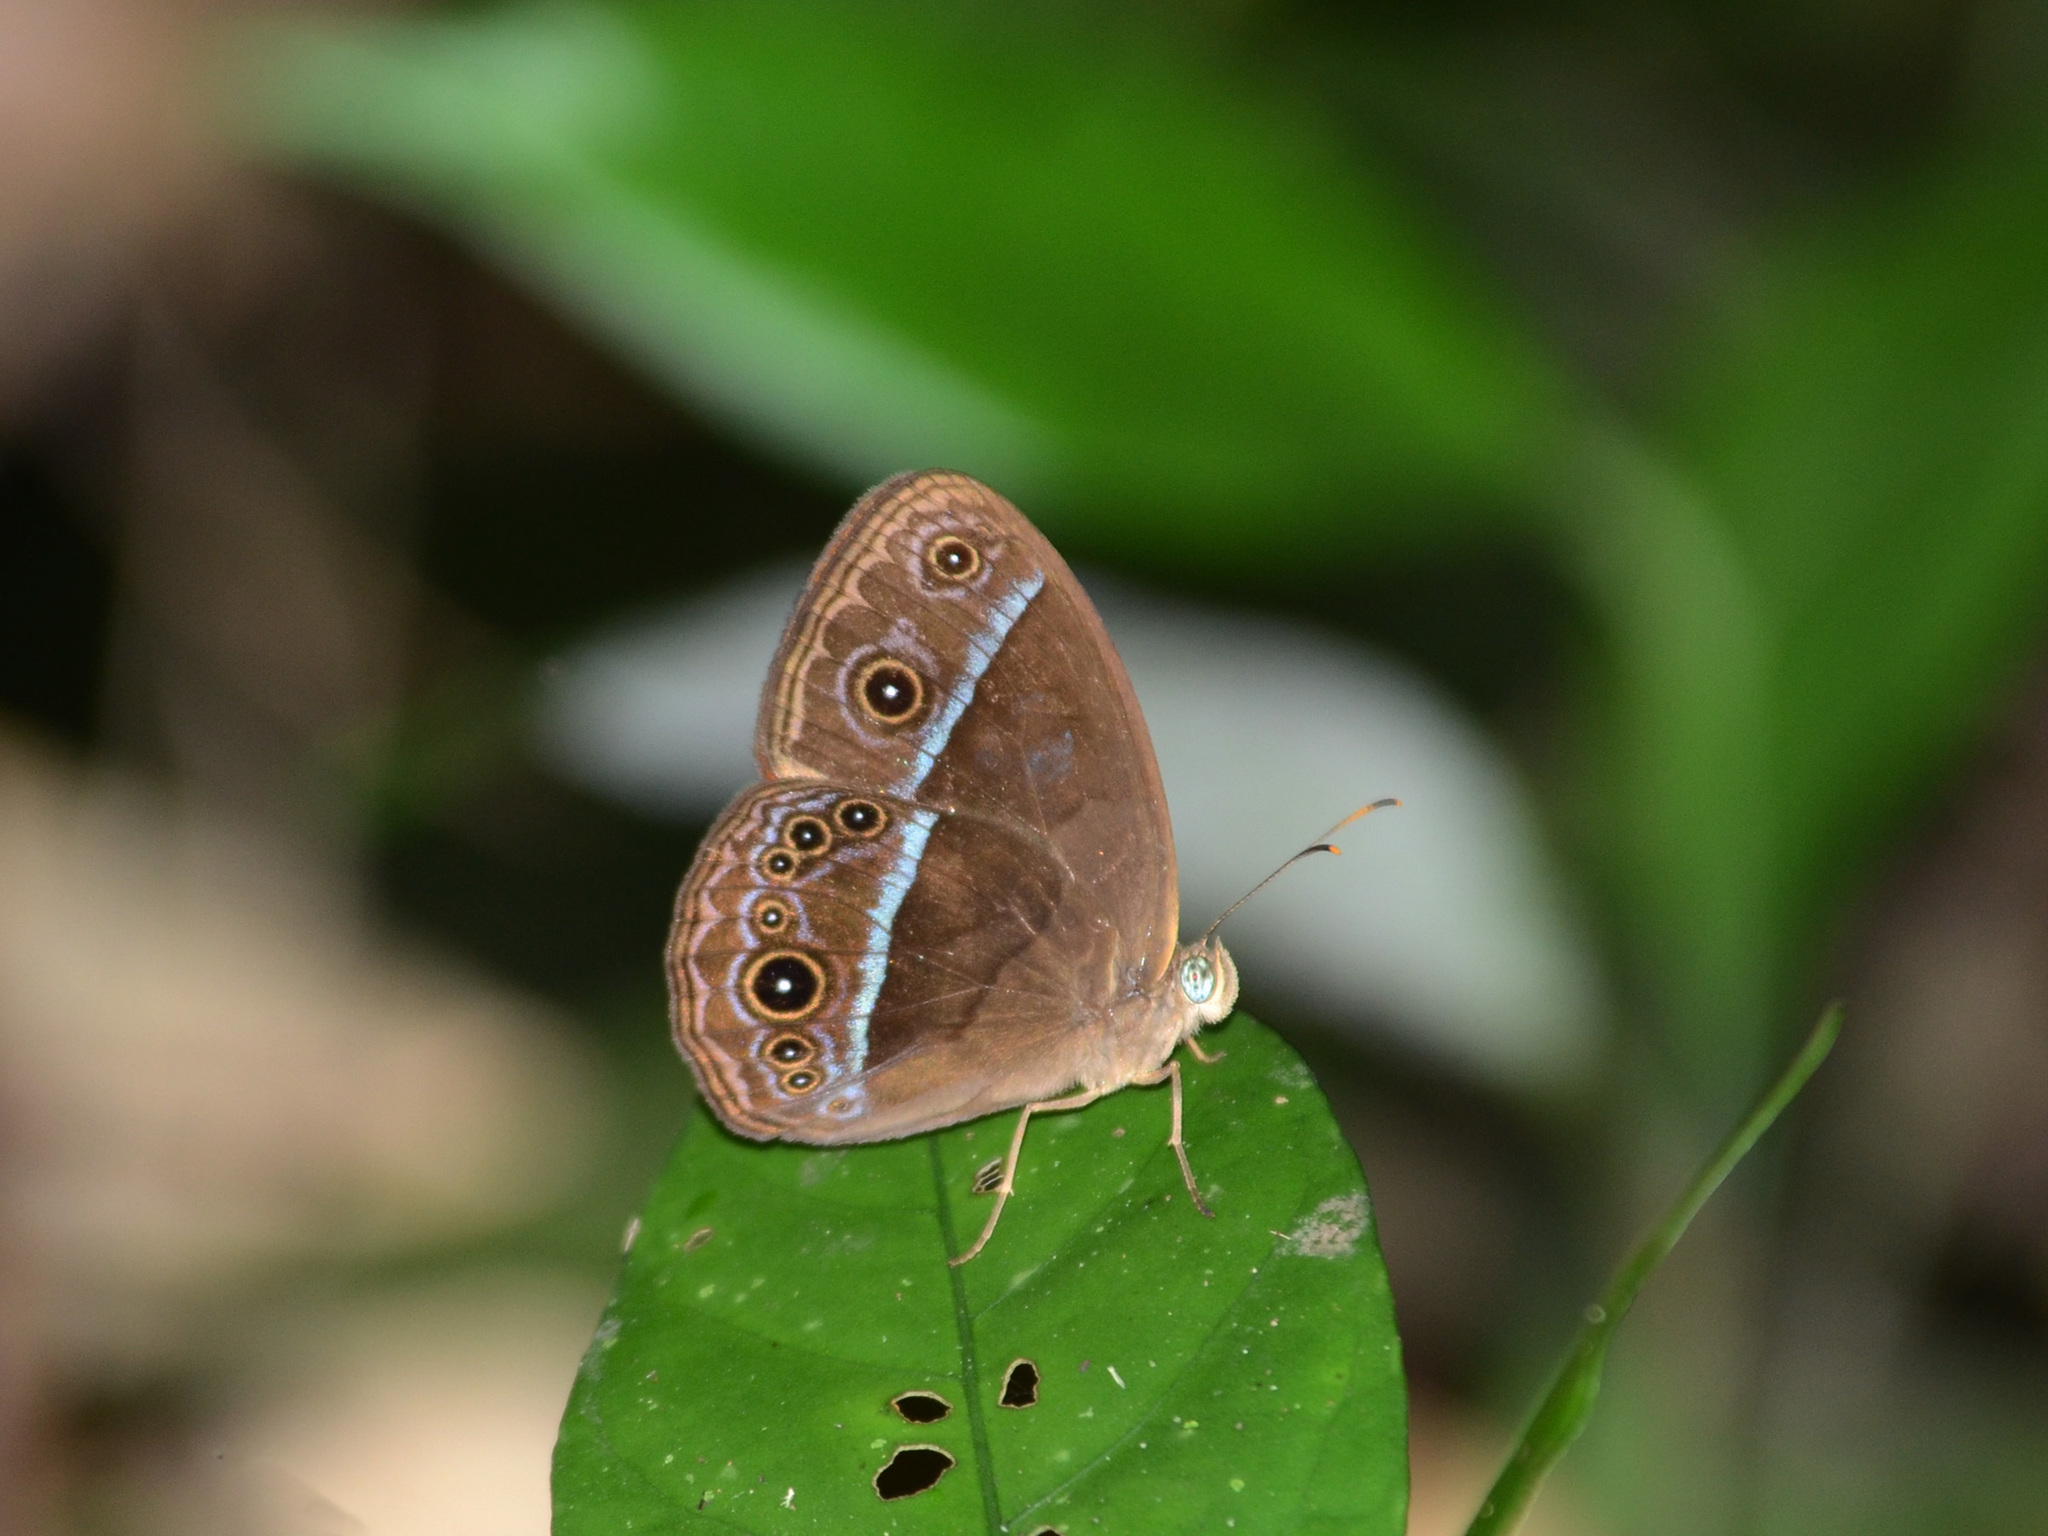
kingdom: Animalia
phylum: Arthropoda
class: Insecta
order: Lepidoptera
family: Nymphalidae
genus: Mycalesis
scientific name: Mycalesis oroatis
